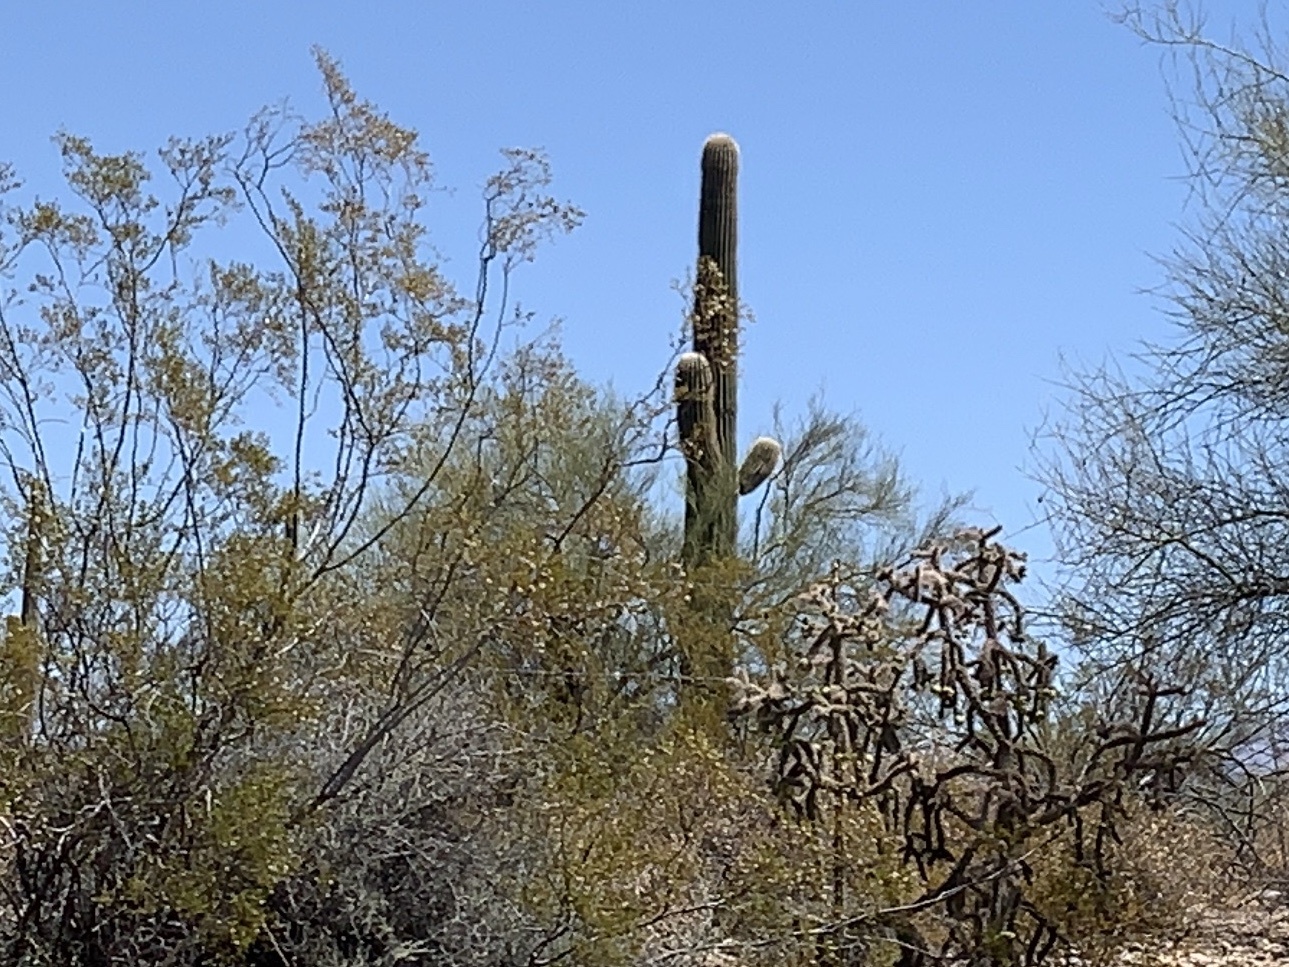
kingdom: Plantae
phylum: Tracheophyta
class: Magnoliopsida
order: Caryophyllales
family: Cactaceae
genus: Carnegiea
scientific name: Carnegiea gigantea
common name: Saguaro
